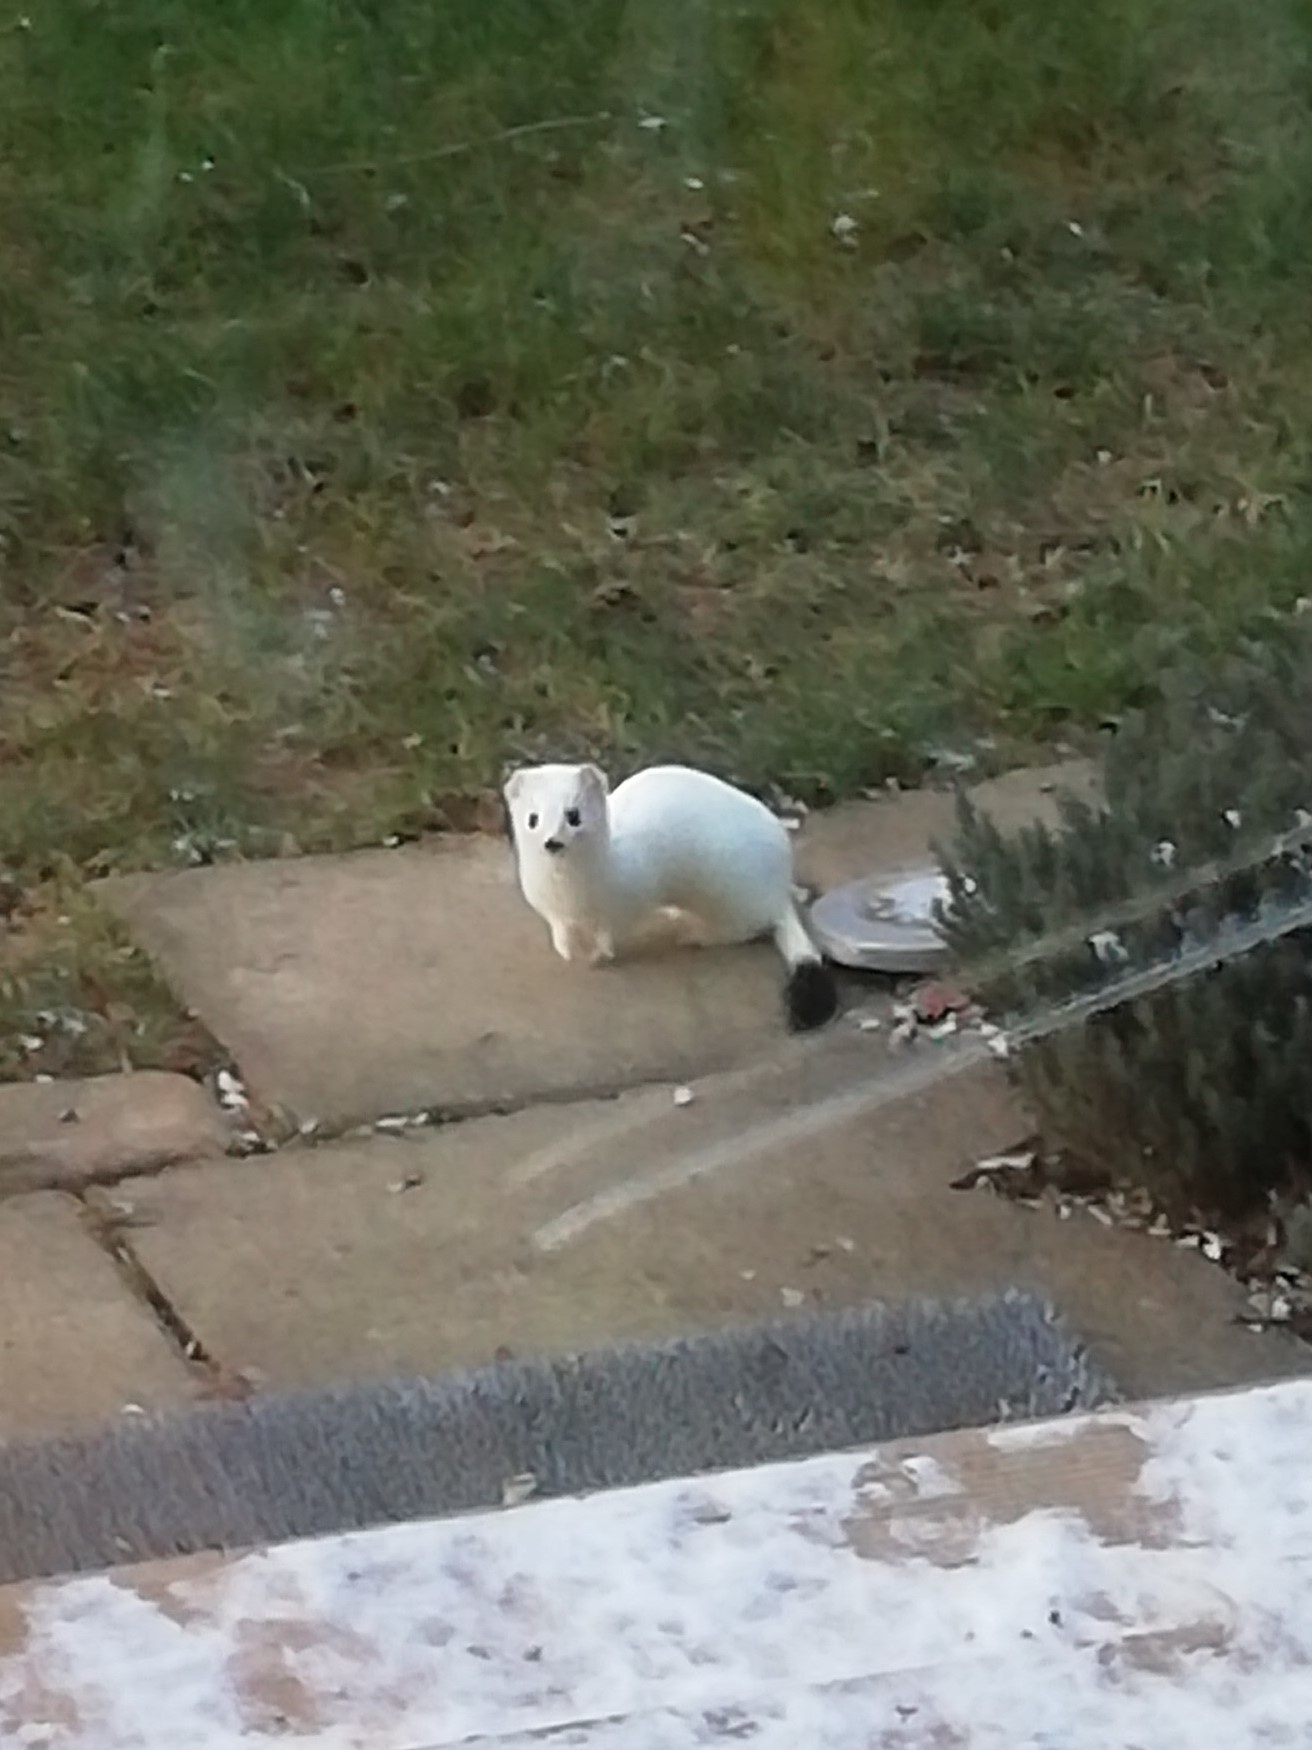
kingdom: Animalia
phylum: Chordata
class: Mammalia
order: Carnivora
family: Mustelidae
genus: Mustela
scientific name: Mustela erminea
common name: Stoat
